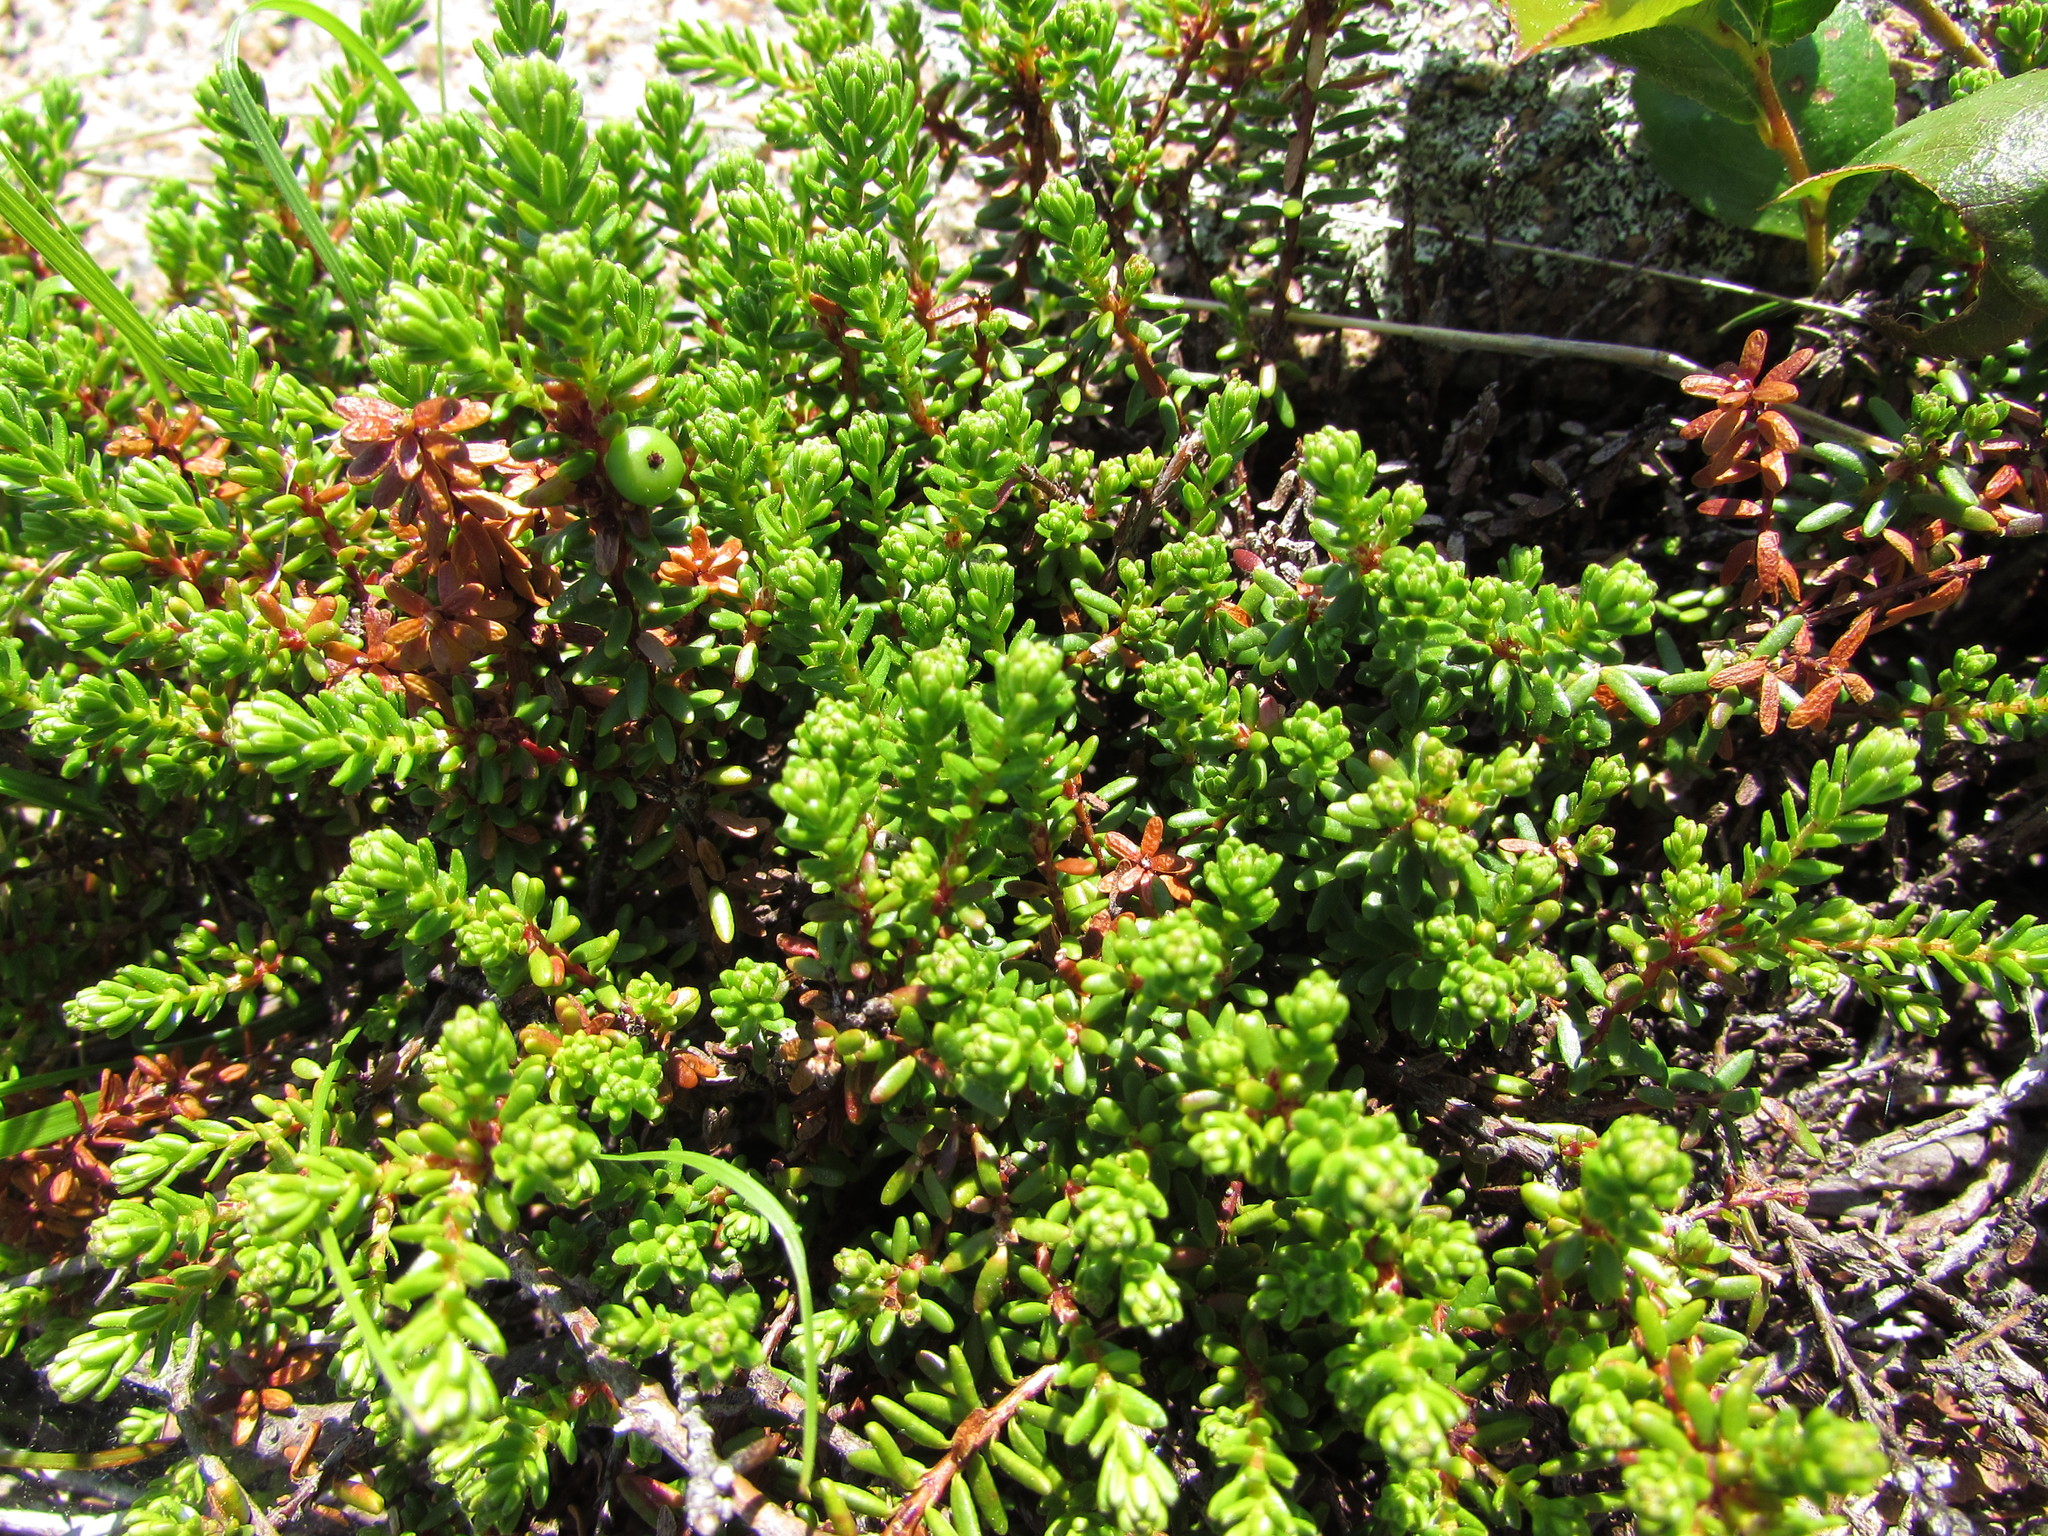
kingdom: Plantae
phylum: Tracheophyta
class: Magnoliopsida
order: Ericales
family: Ericaceae
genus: Empetrum
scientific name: Empetrum nigrum
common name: Black crowberry
